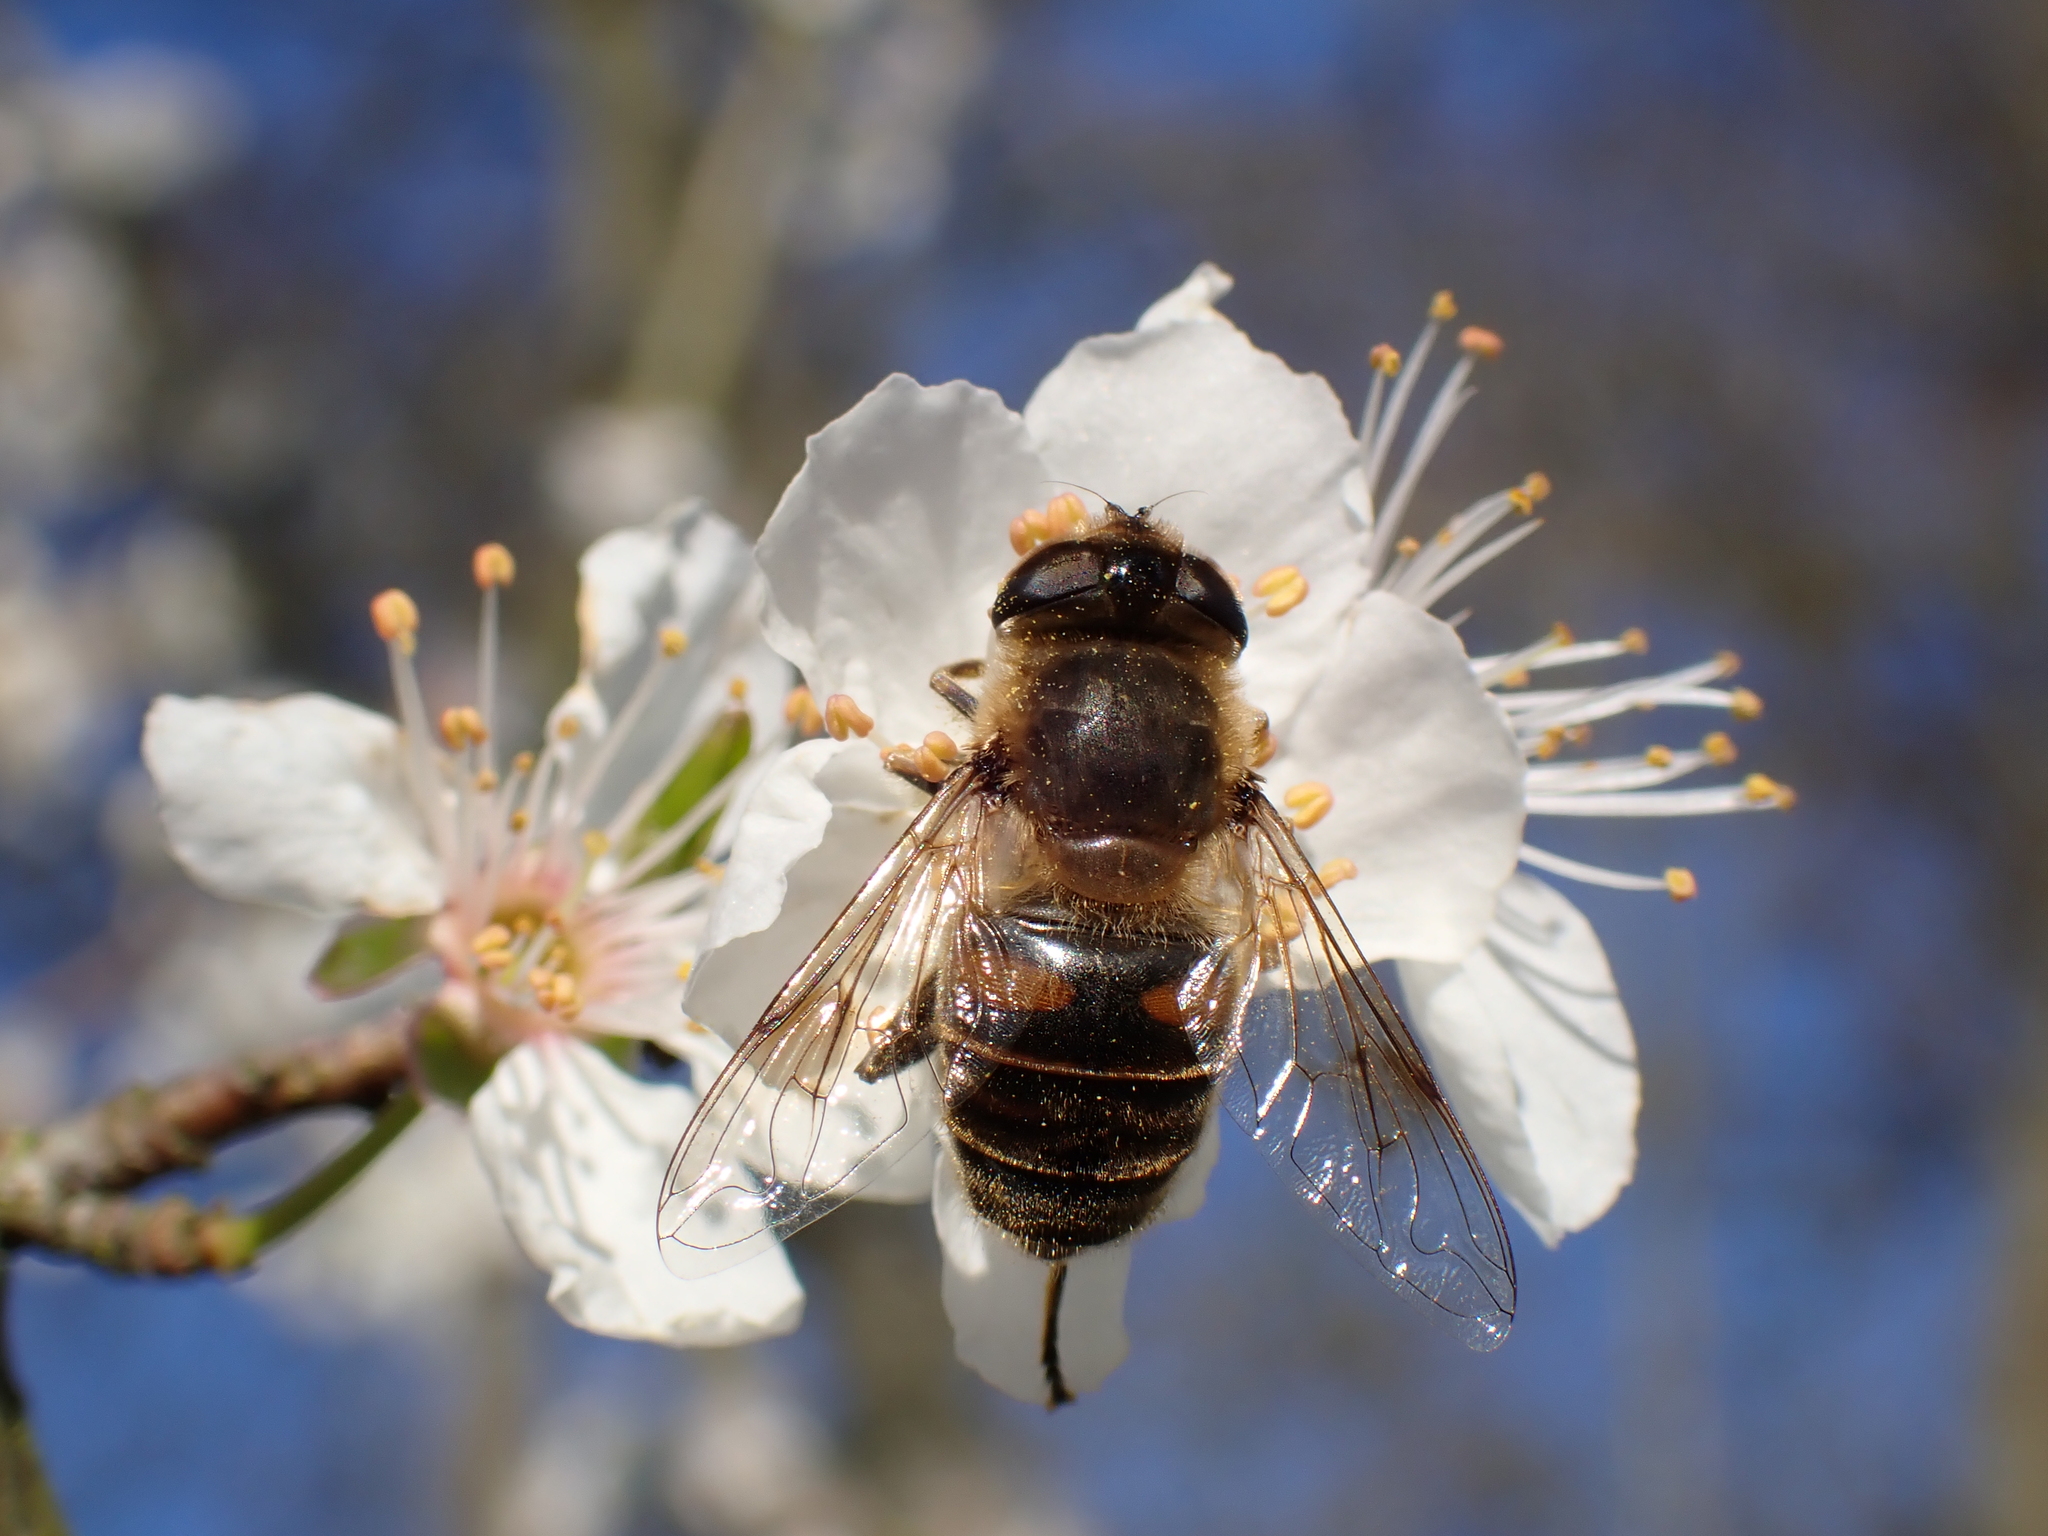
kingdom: Animalia
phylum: Arthropoda
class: Insecta
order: Diptera
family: Syrphidae
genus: Eristalis
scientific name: Eristalis tenax
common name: Drone fly
